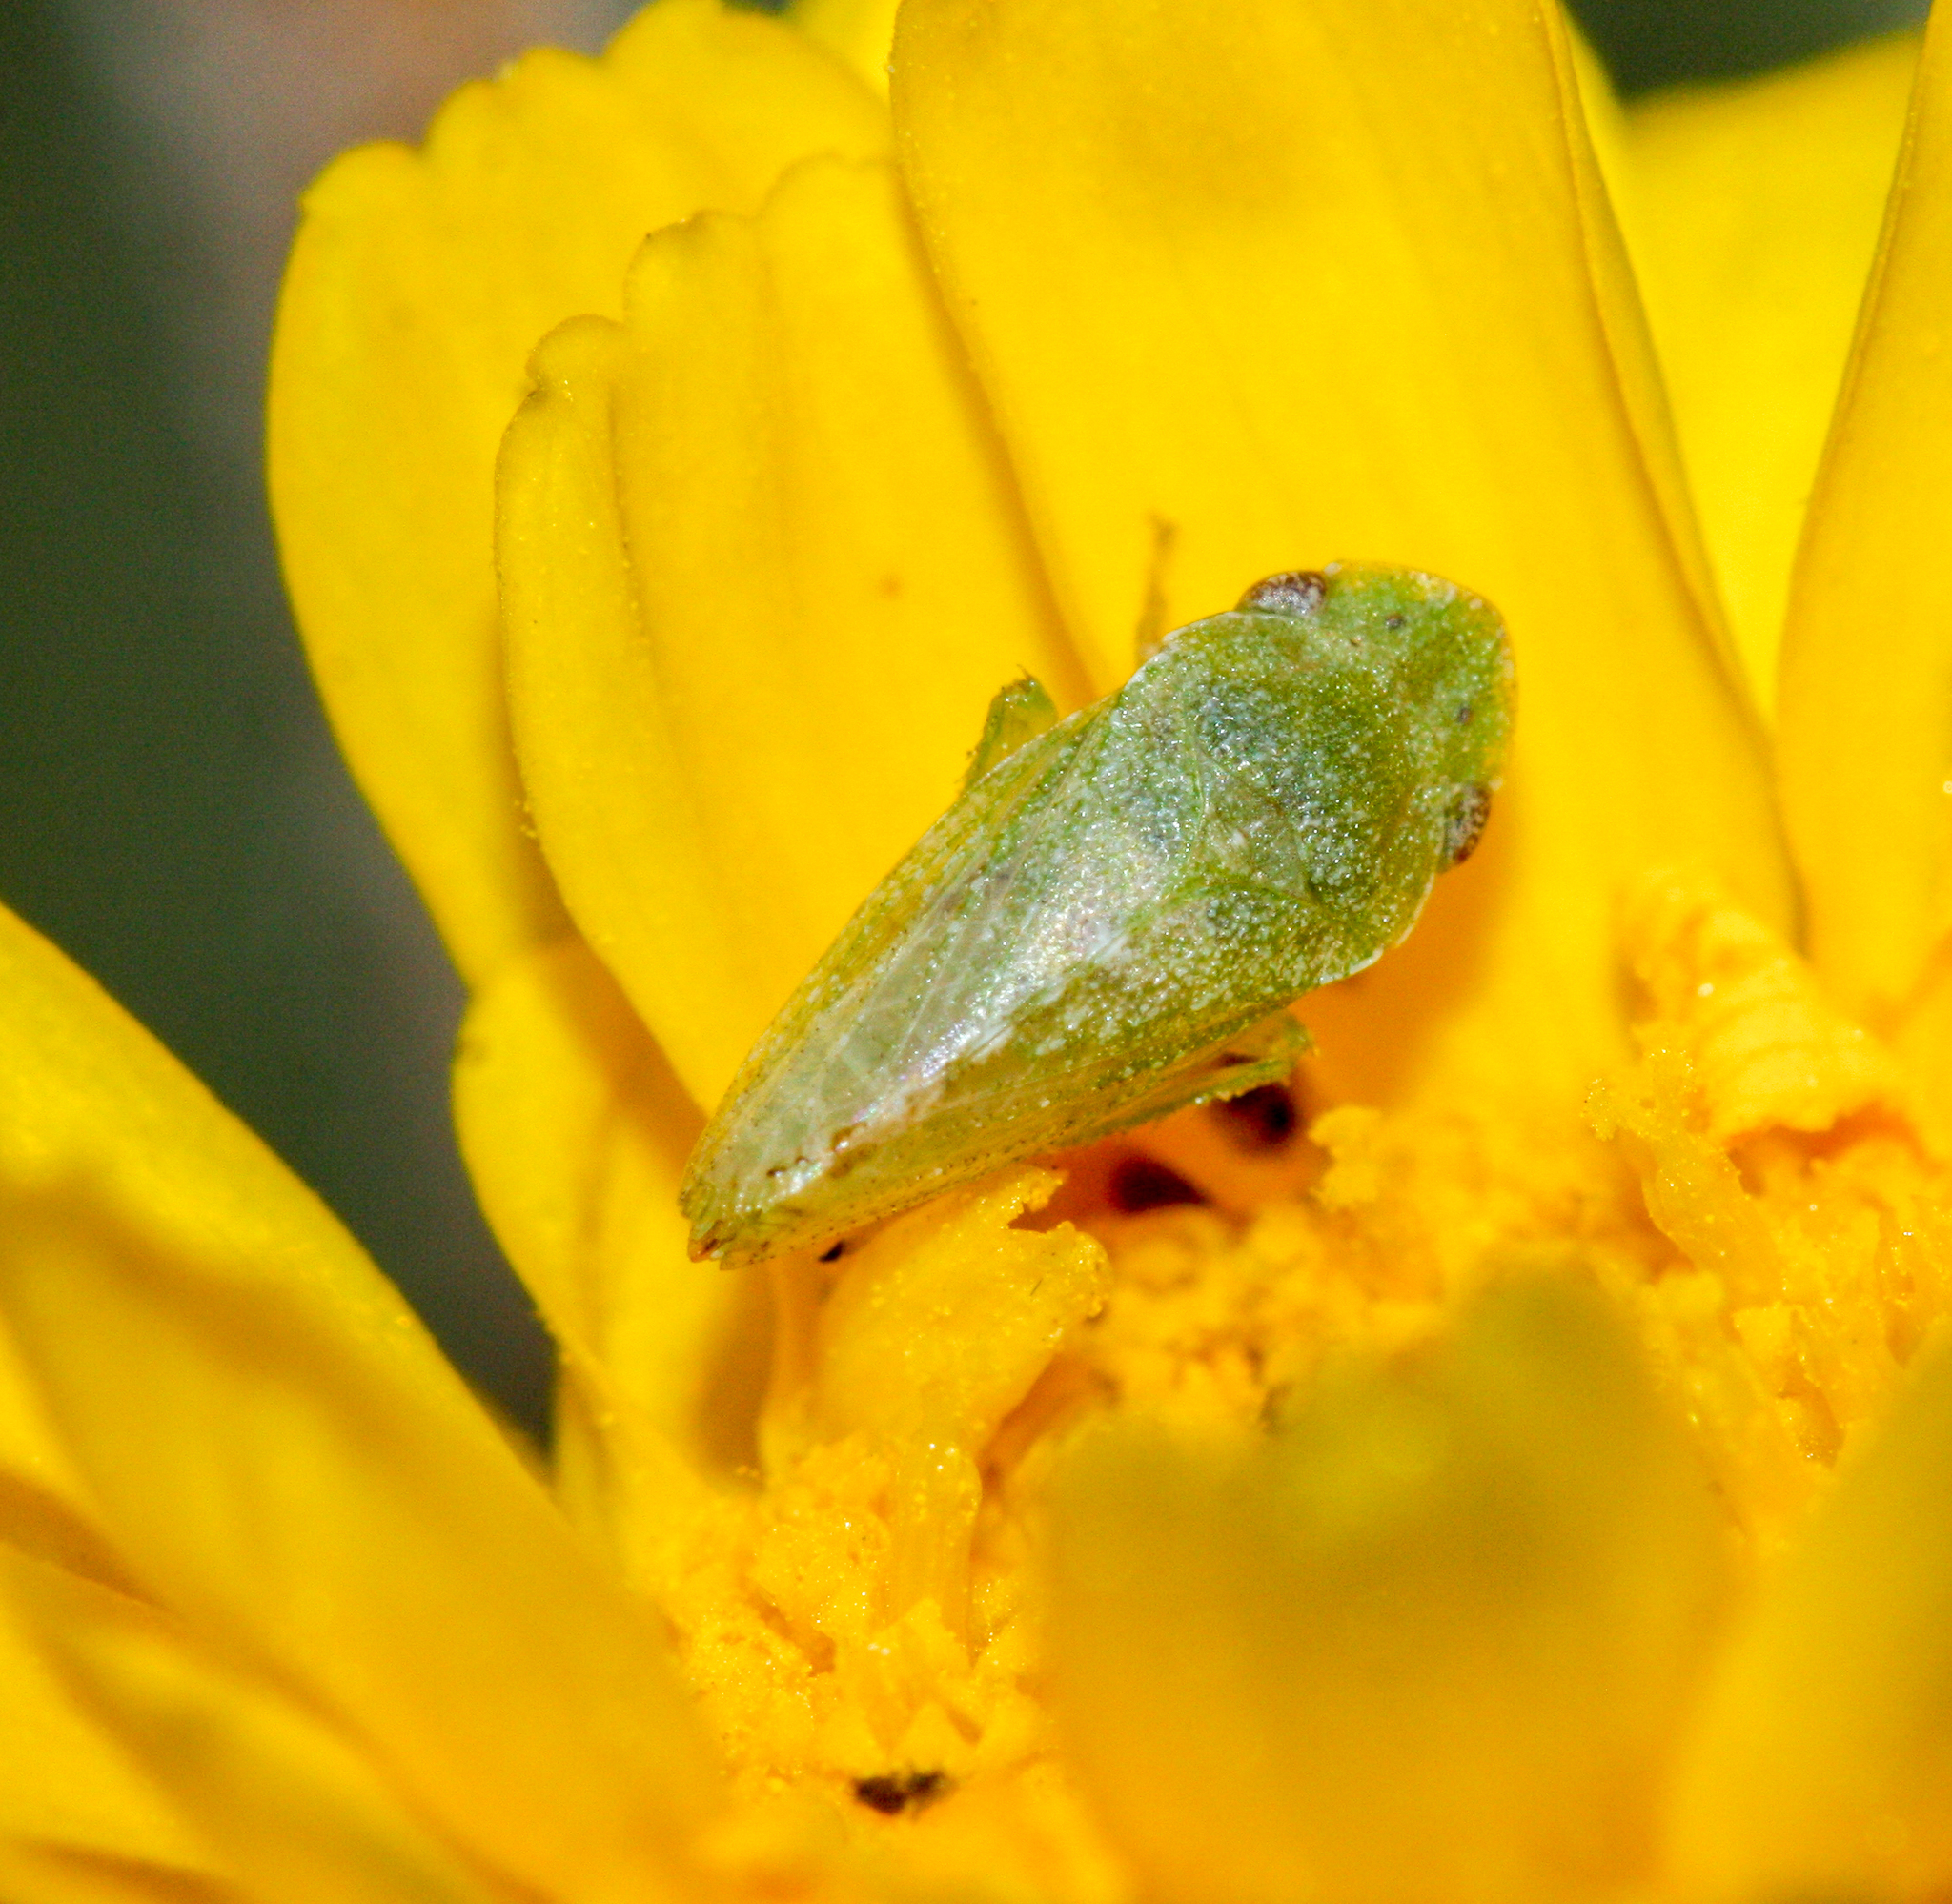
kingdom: Animalia
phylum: Arthropoda
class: Insecta
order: Hemiptera
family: Cicadellidae
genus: Xerophloea
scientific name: Xerophloea viridis
